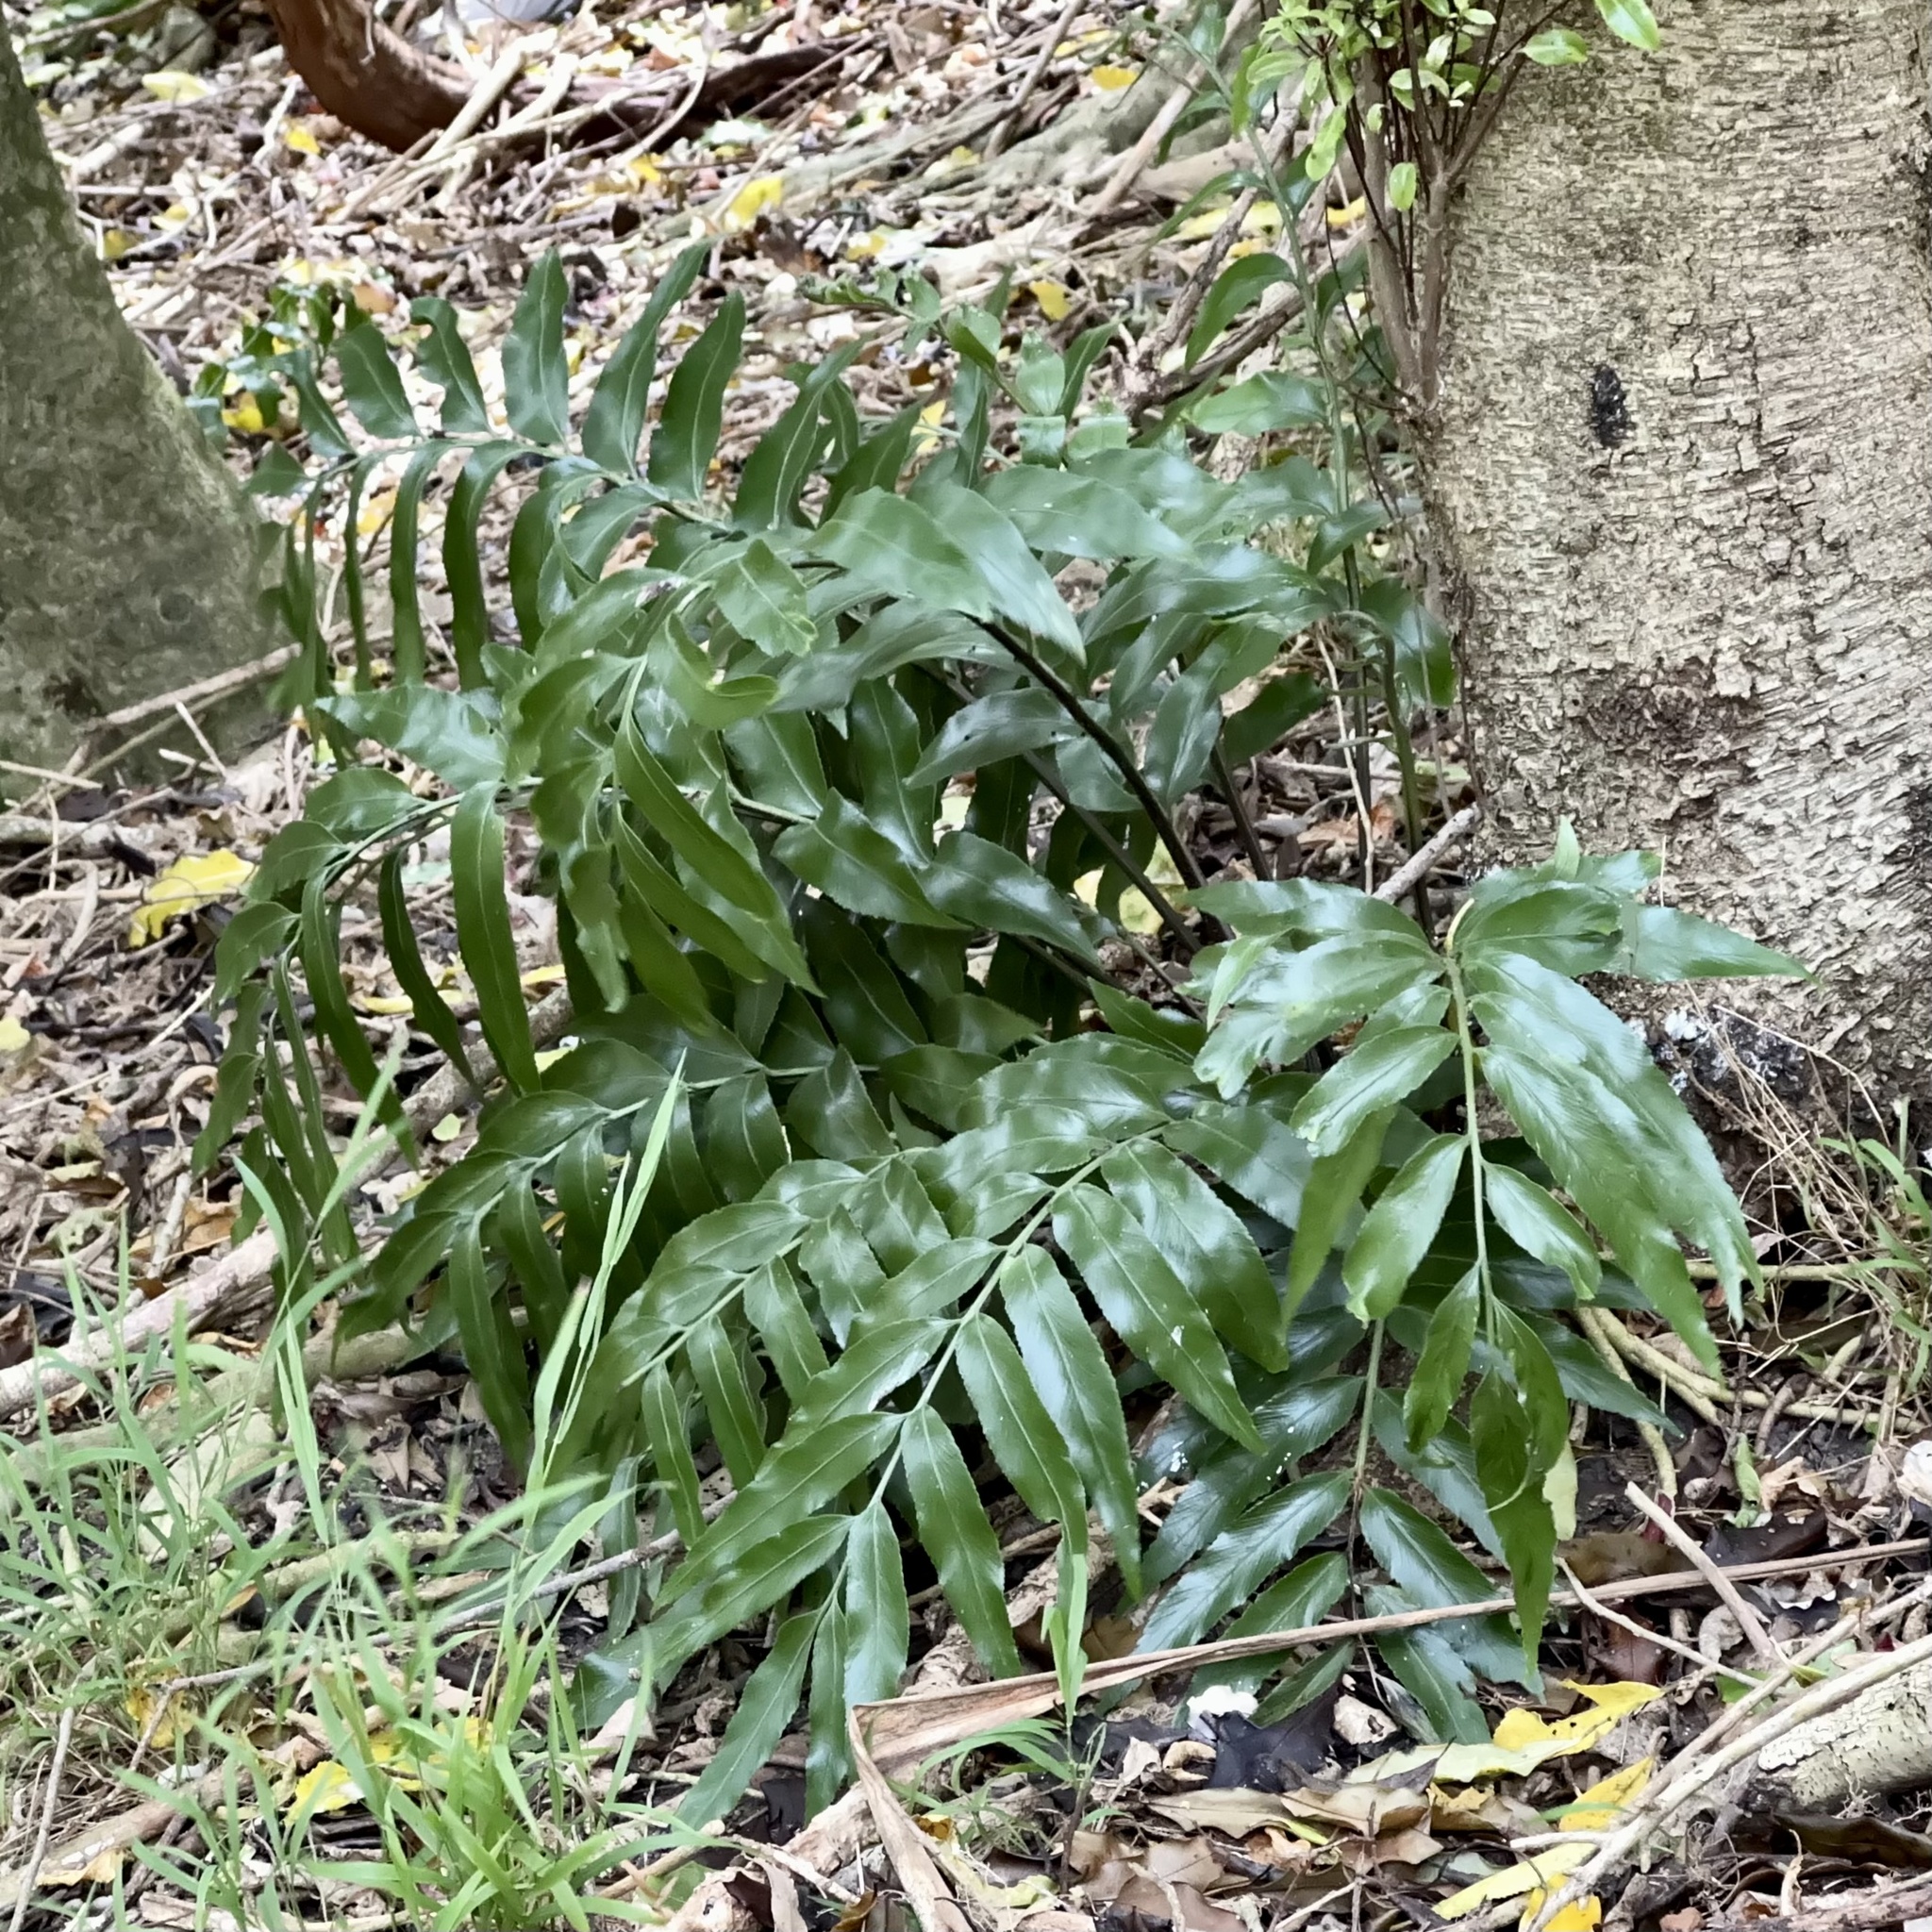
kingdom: Plantae
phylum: Tracheophyta
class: Polypodiopsida
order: Polypodiales
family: Aspleniaceae
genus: Asplenium
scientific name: Asplenium oblongifolium
